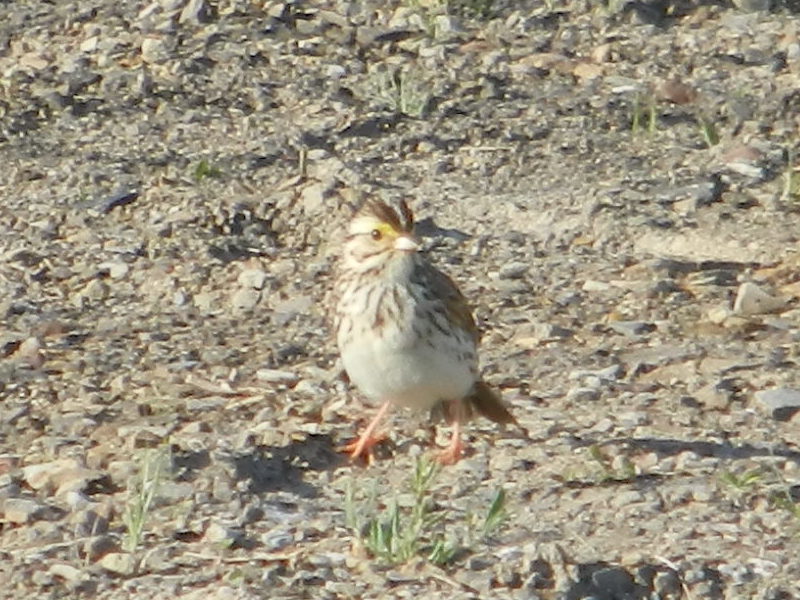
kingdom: Animalia
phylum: Chordata
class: Aves
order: Passeriformes
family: Passerellidae
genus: Passerculus
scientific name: Passerculus sandwichensis
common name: Savannah sparrow
